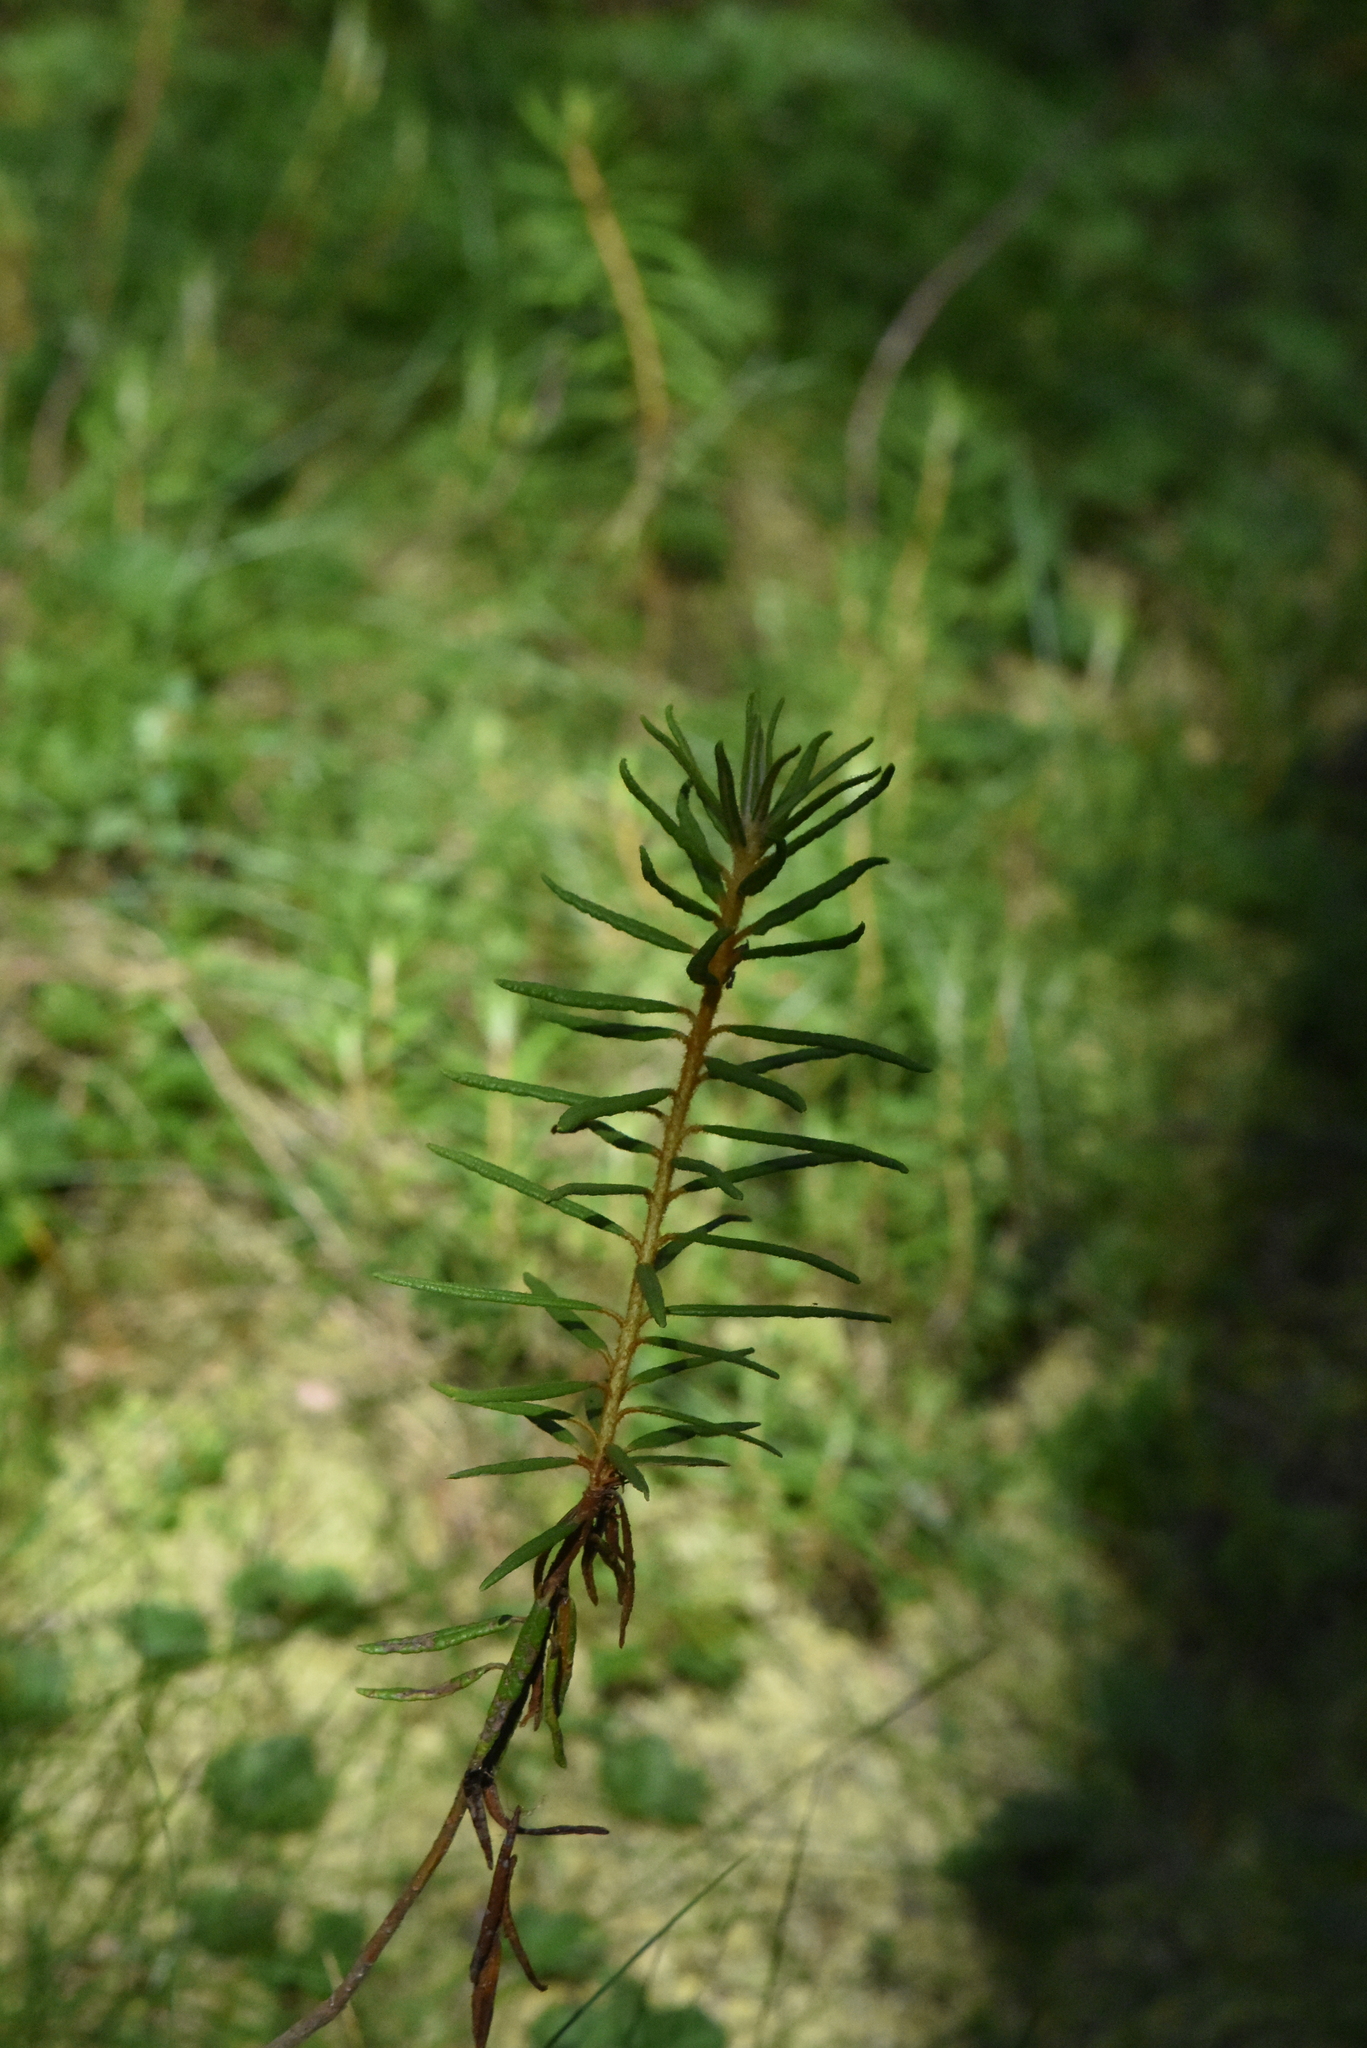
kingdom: Plantae
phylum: Tracheophyta
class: Magnoliopsida
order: Ericales
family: Ericaceae
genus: Rhododendron
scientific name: Rhododendron tomentosum
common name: Marsh labrador tea
